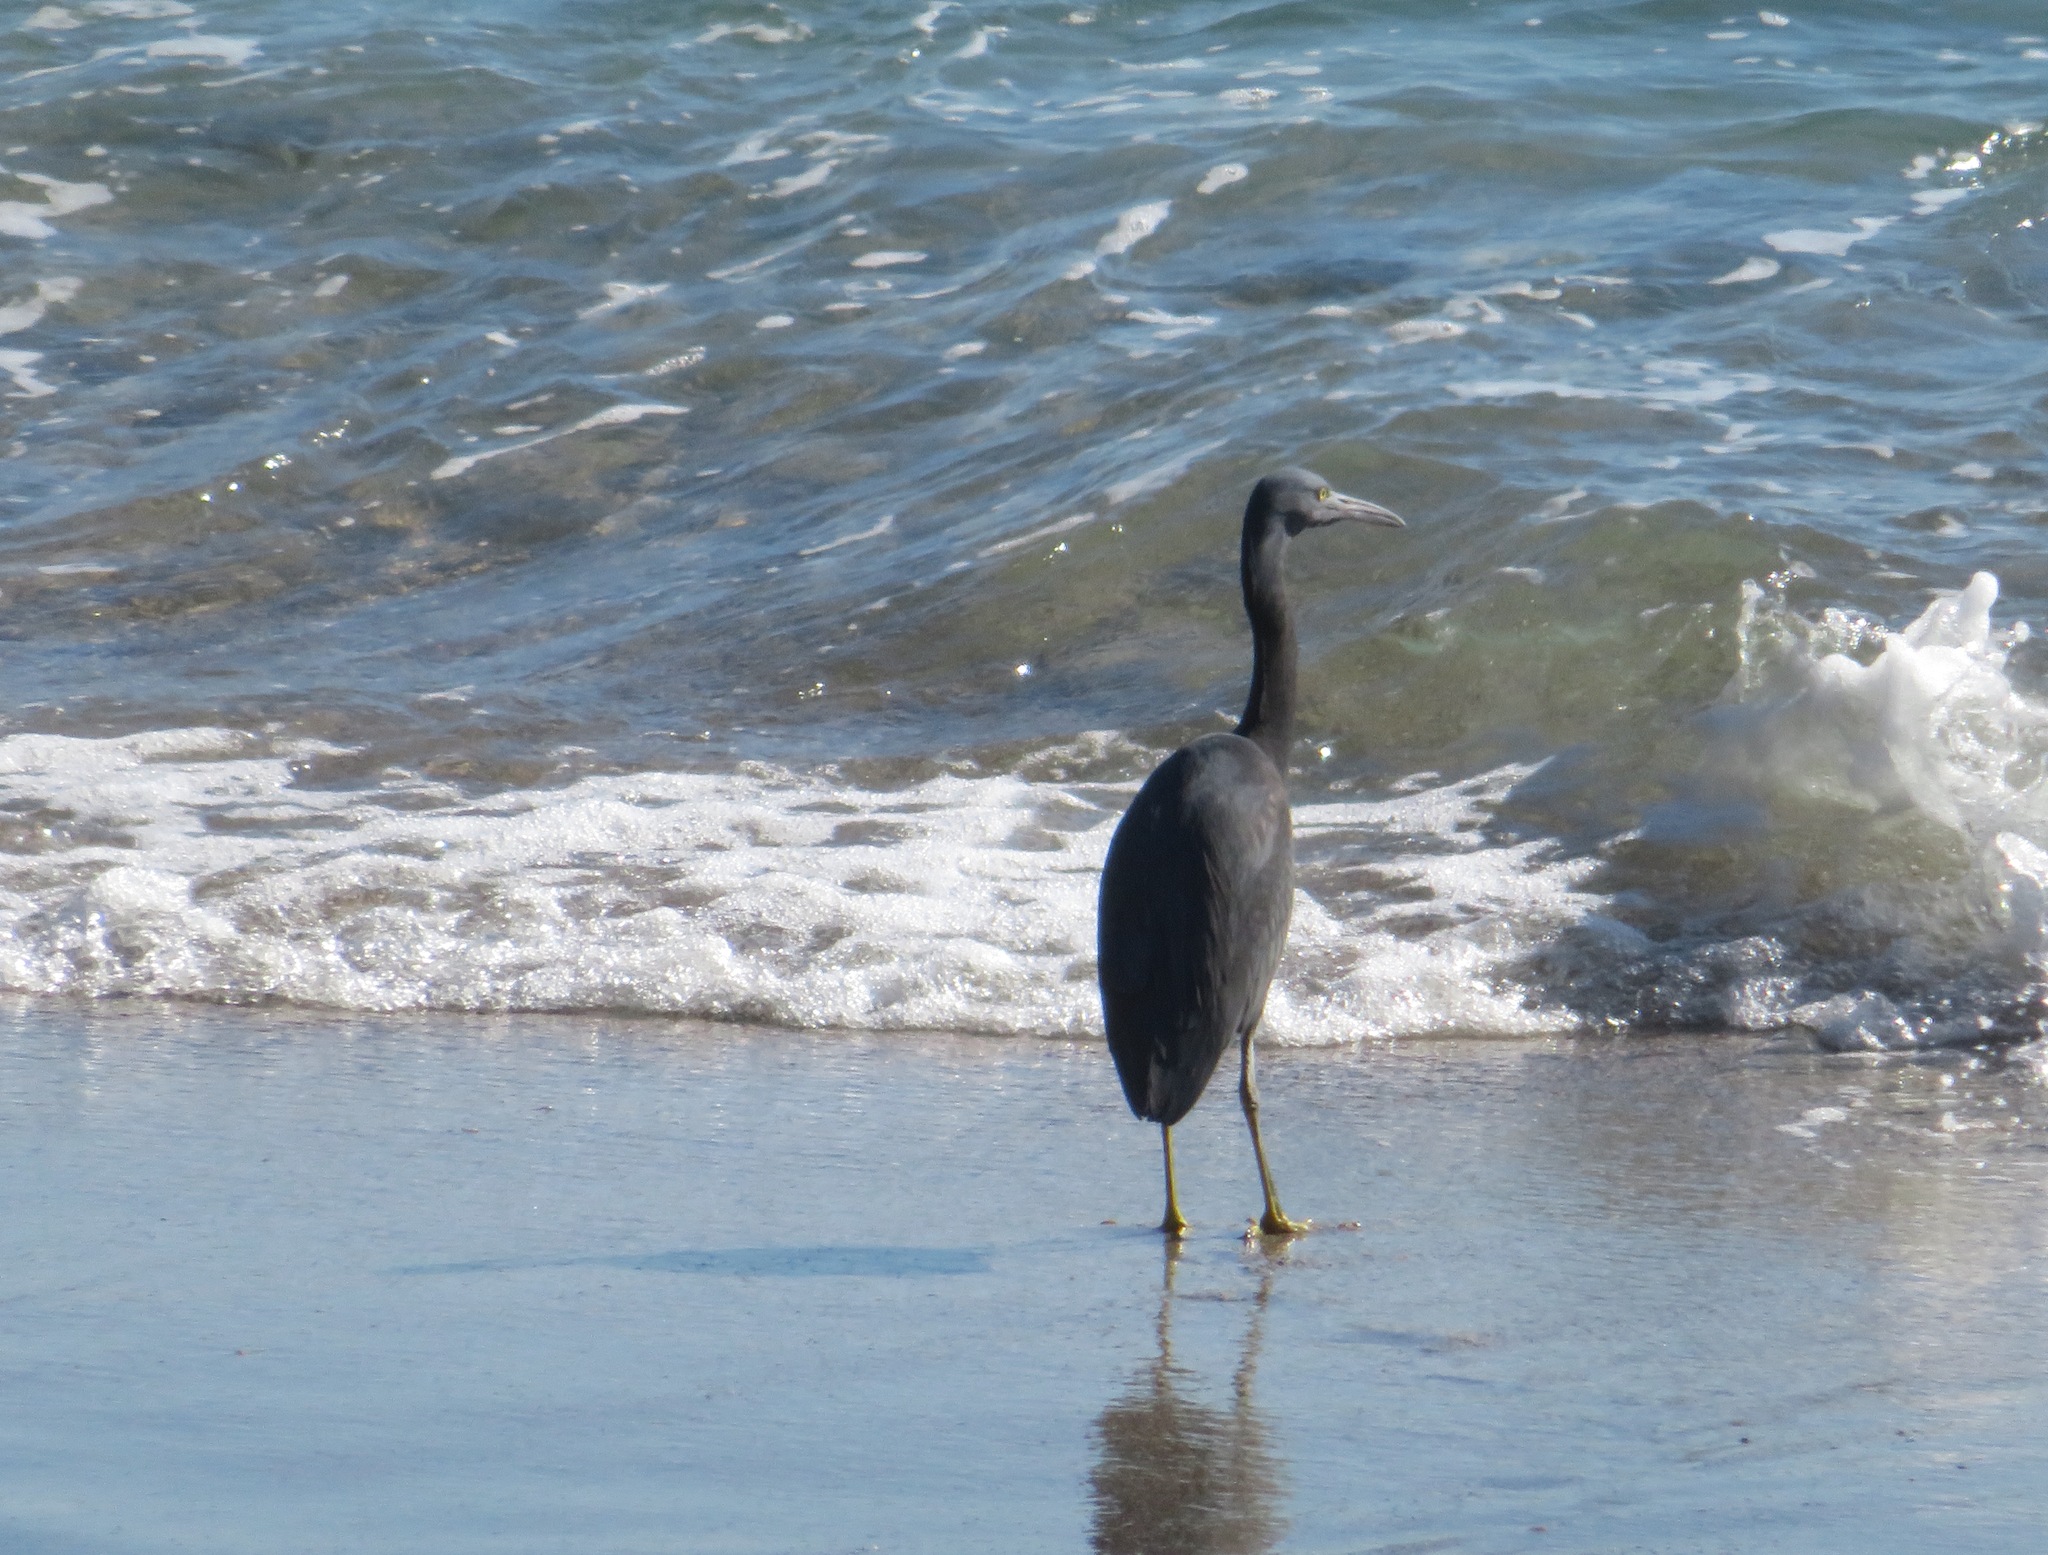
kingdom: Animalia
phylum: Chordata
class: Aves
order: Pelecaniformes
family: Ardeidae
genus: Egretta
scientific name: Egretta sacra
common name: Pacific reef heron
